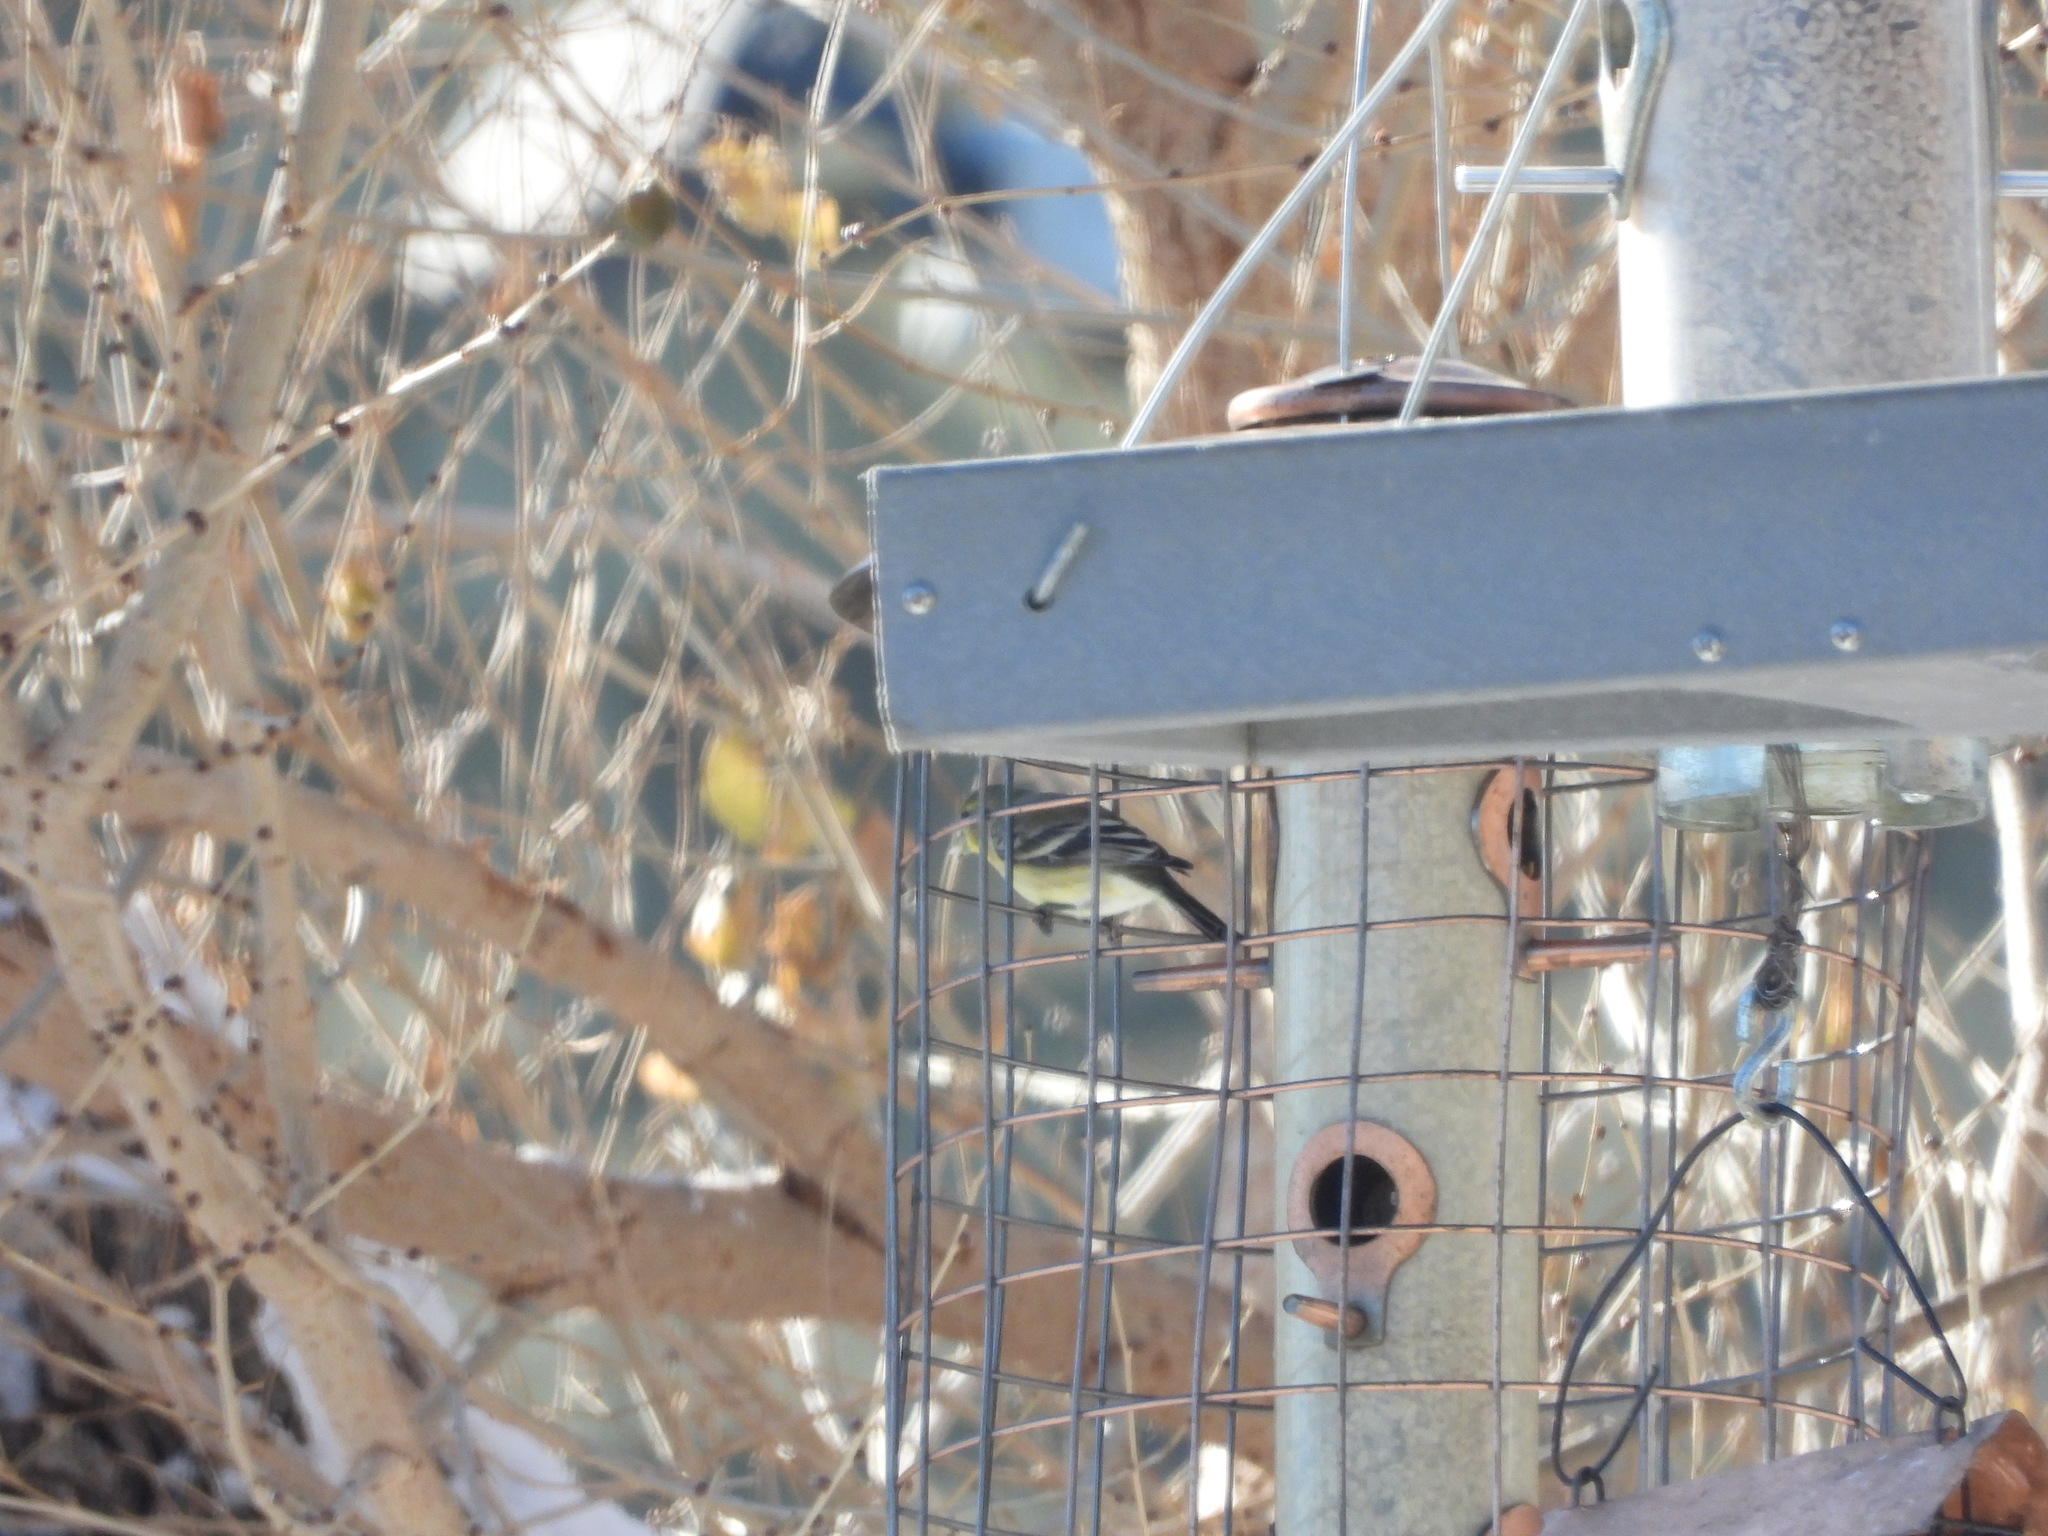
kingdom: Animalia
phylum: Chordata
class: Aves
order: Passeriformes
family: Fringillidae
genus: Spinus
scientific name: Spinus psaltria
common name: Lesser goldfinch
